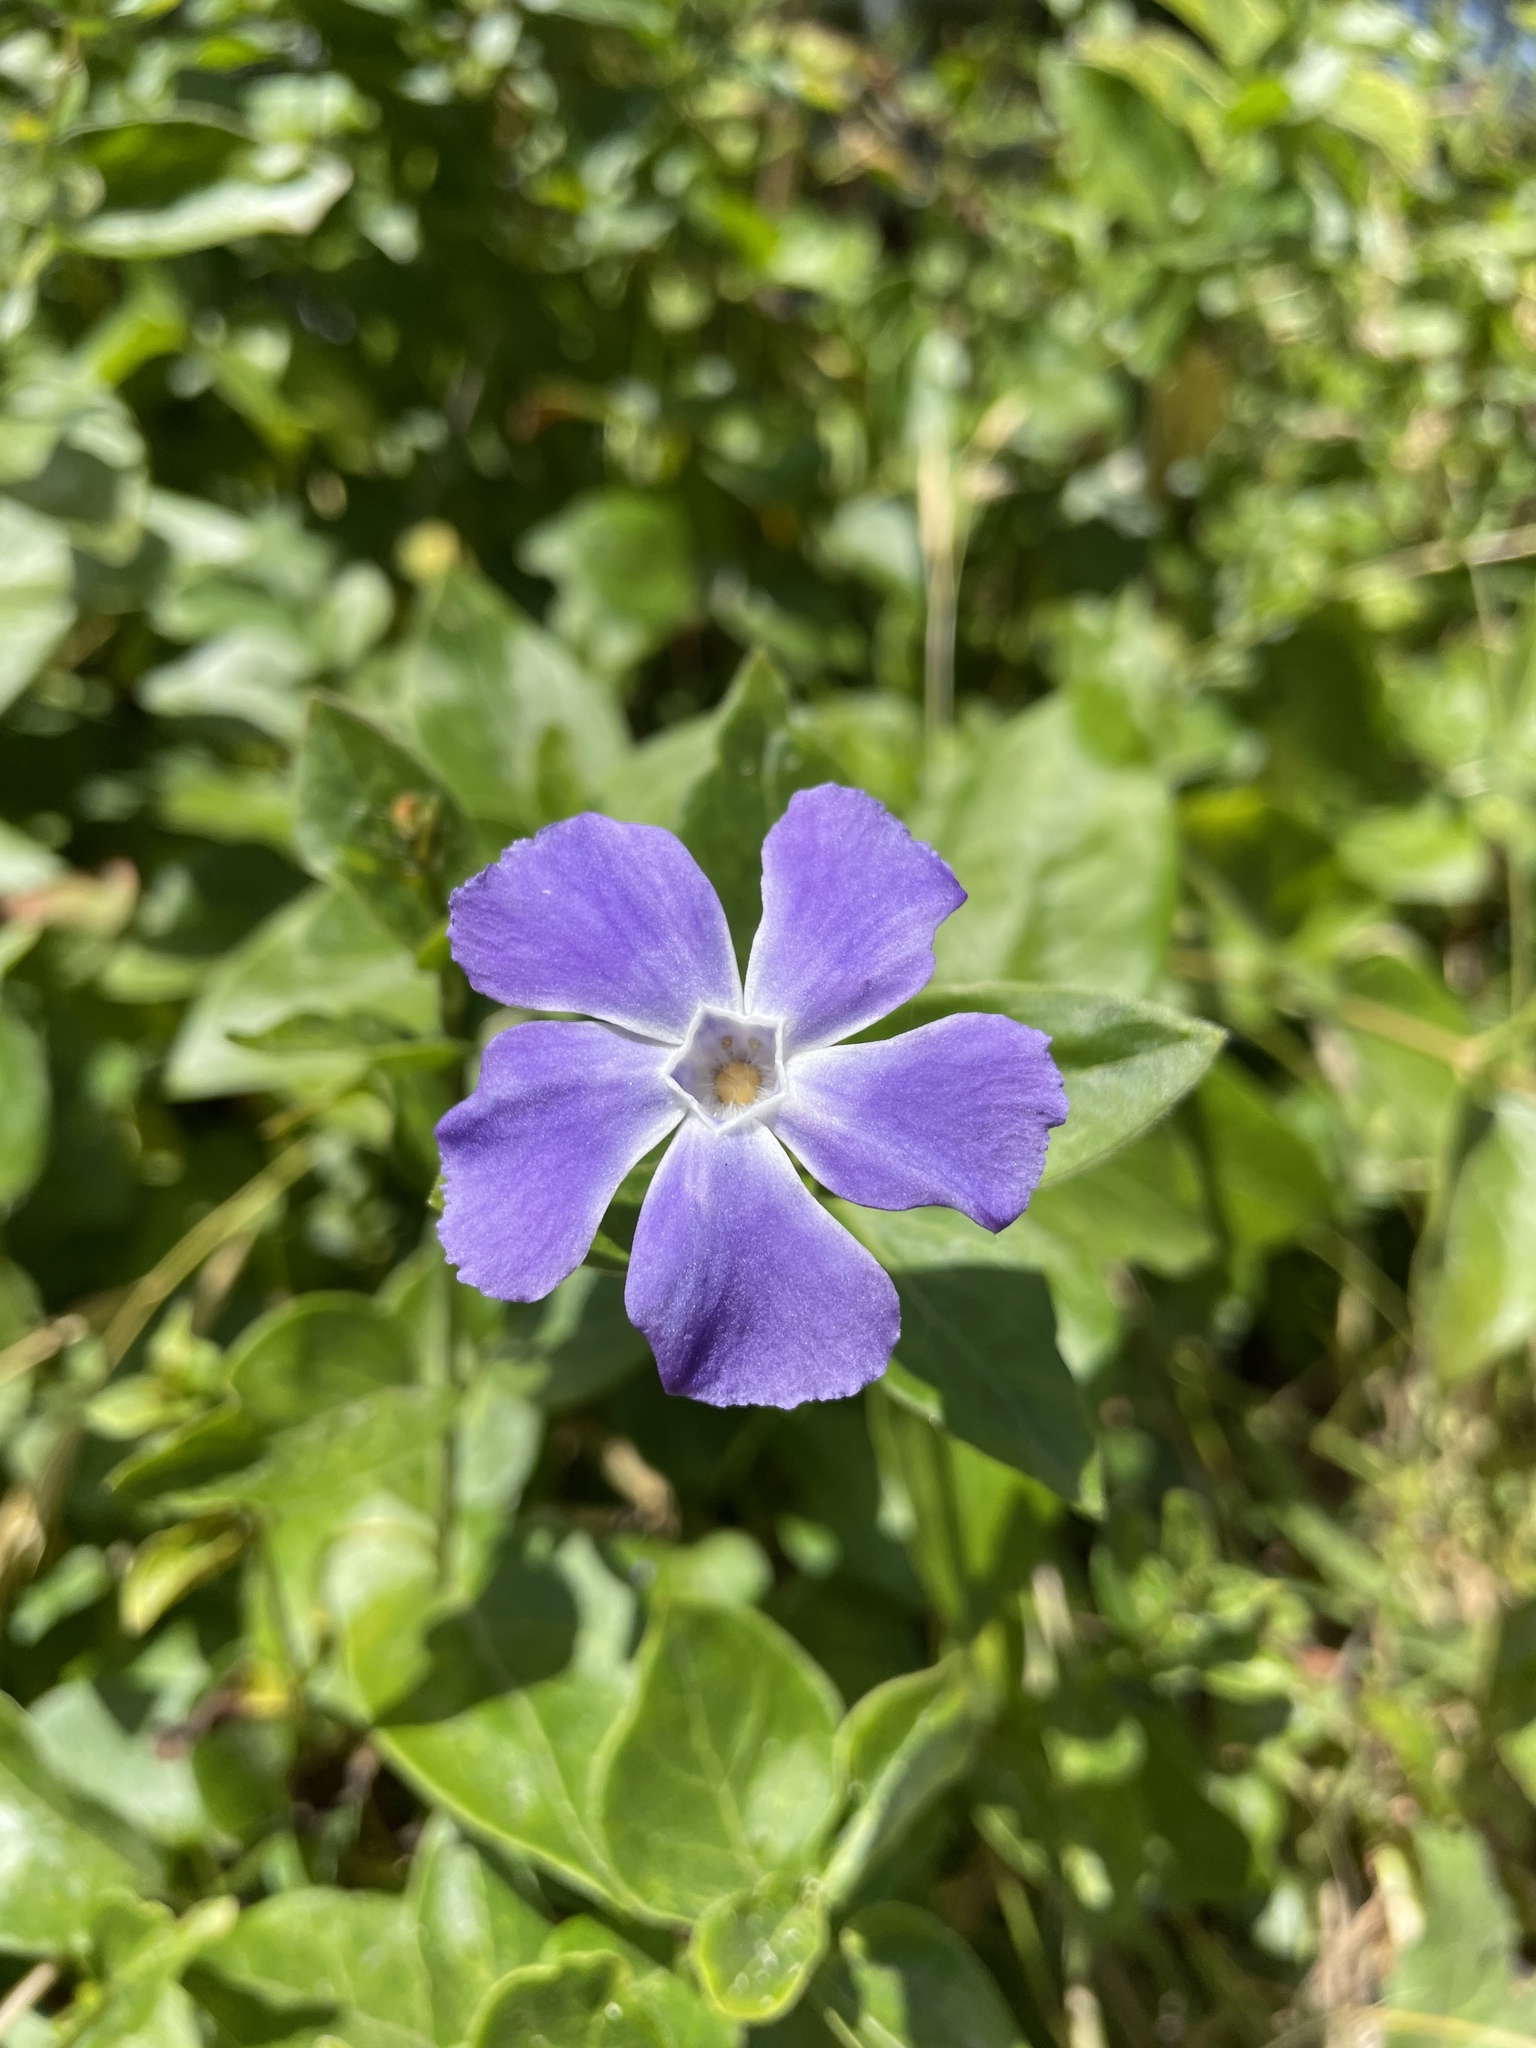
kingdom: Plantae
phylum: Tracheophyta
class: Magnoliopsida
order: Gentianales
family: Apocynaceae
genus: Vinca
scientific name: Vinca major
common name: Greater periwinkle
